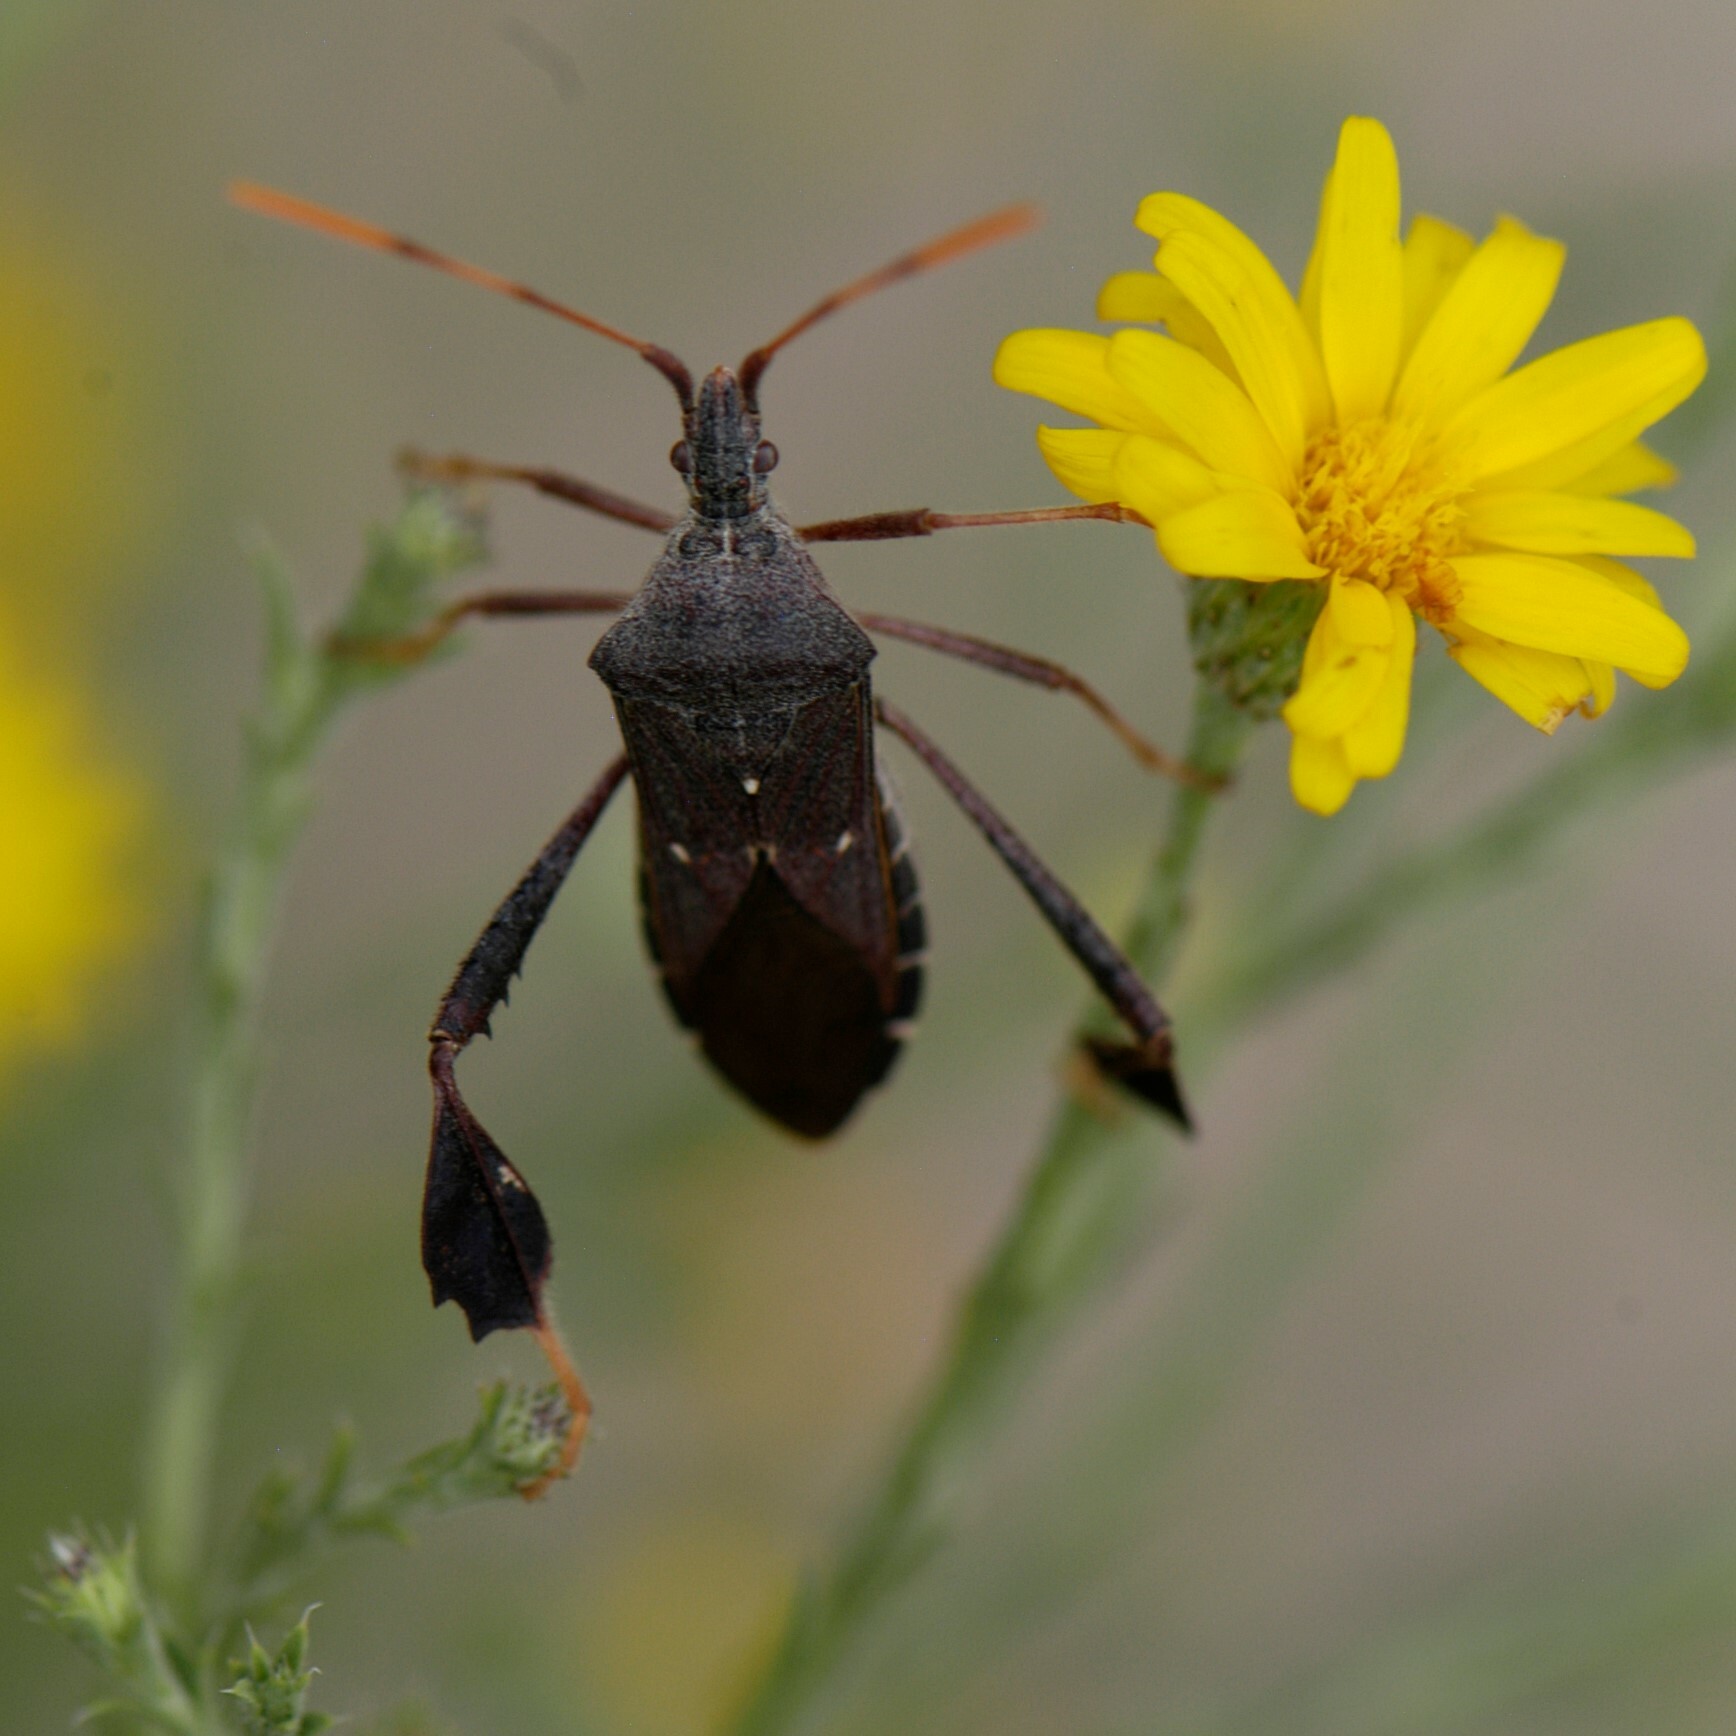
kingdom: Animalia
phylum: Arthropoda
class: Insecta
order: Hemiptera
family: Coreidae
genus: Leptoglossus
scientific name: Leptoglossus oppositus
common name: Northern leaf-footed bug
